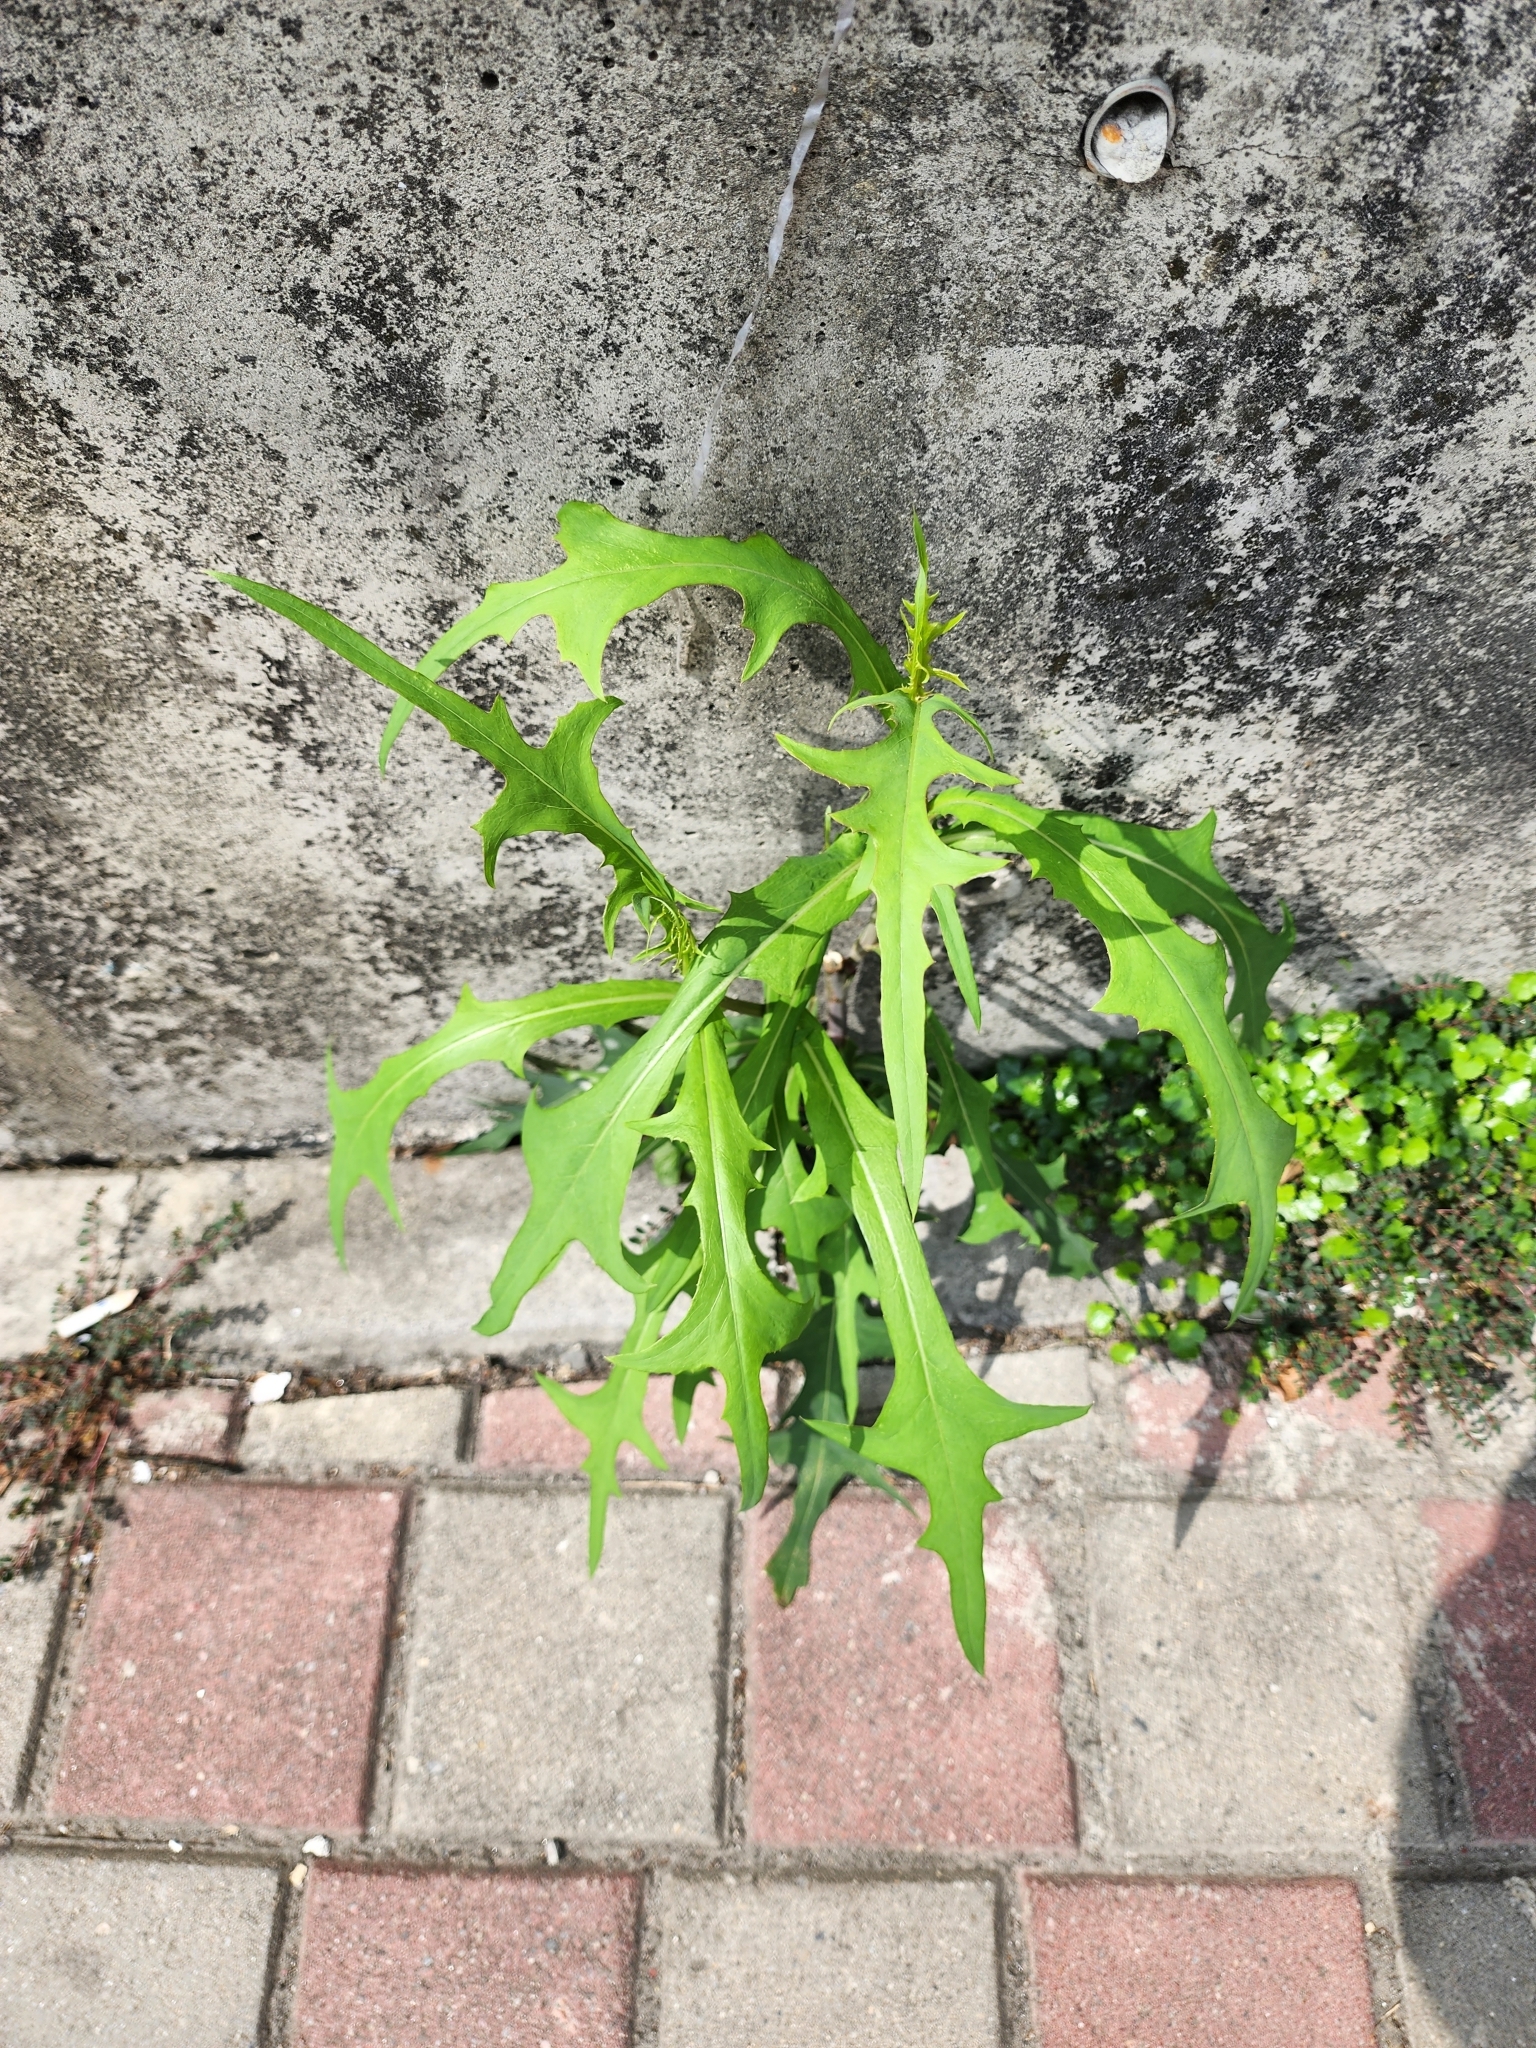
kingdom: Plantae
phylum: Tracheophyta
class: Magnoliopsida
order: Asterales
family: Asteraceae
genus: Lactuca
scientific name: Lactuca indica
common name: Wild lettuce
